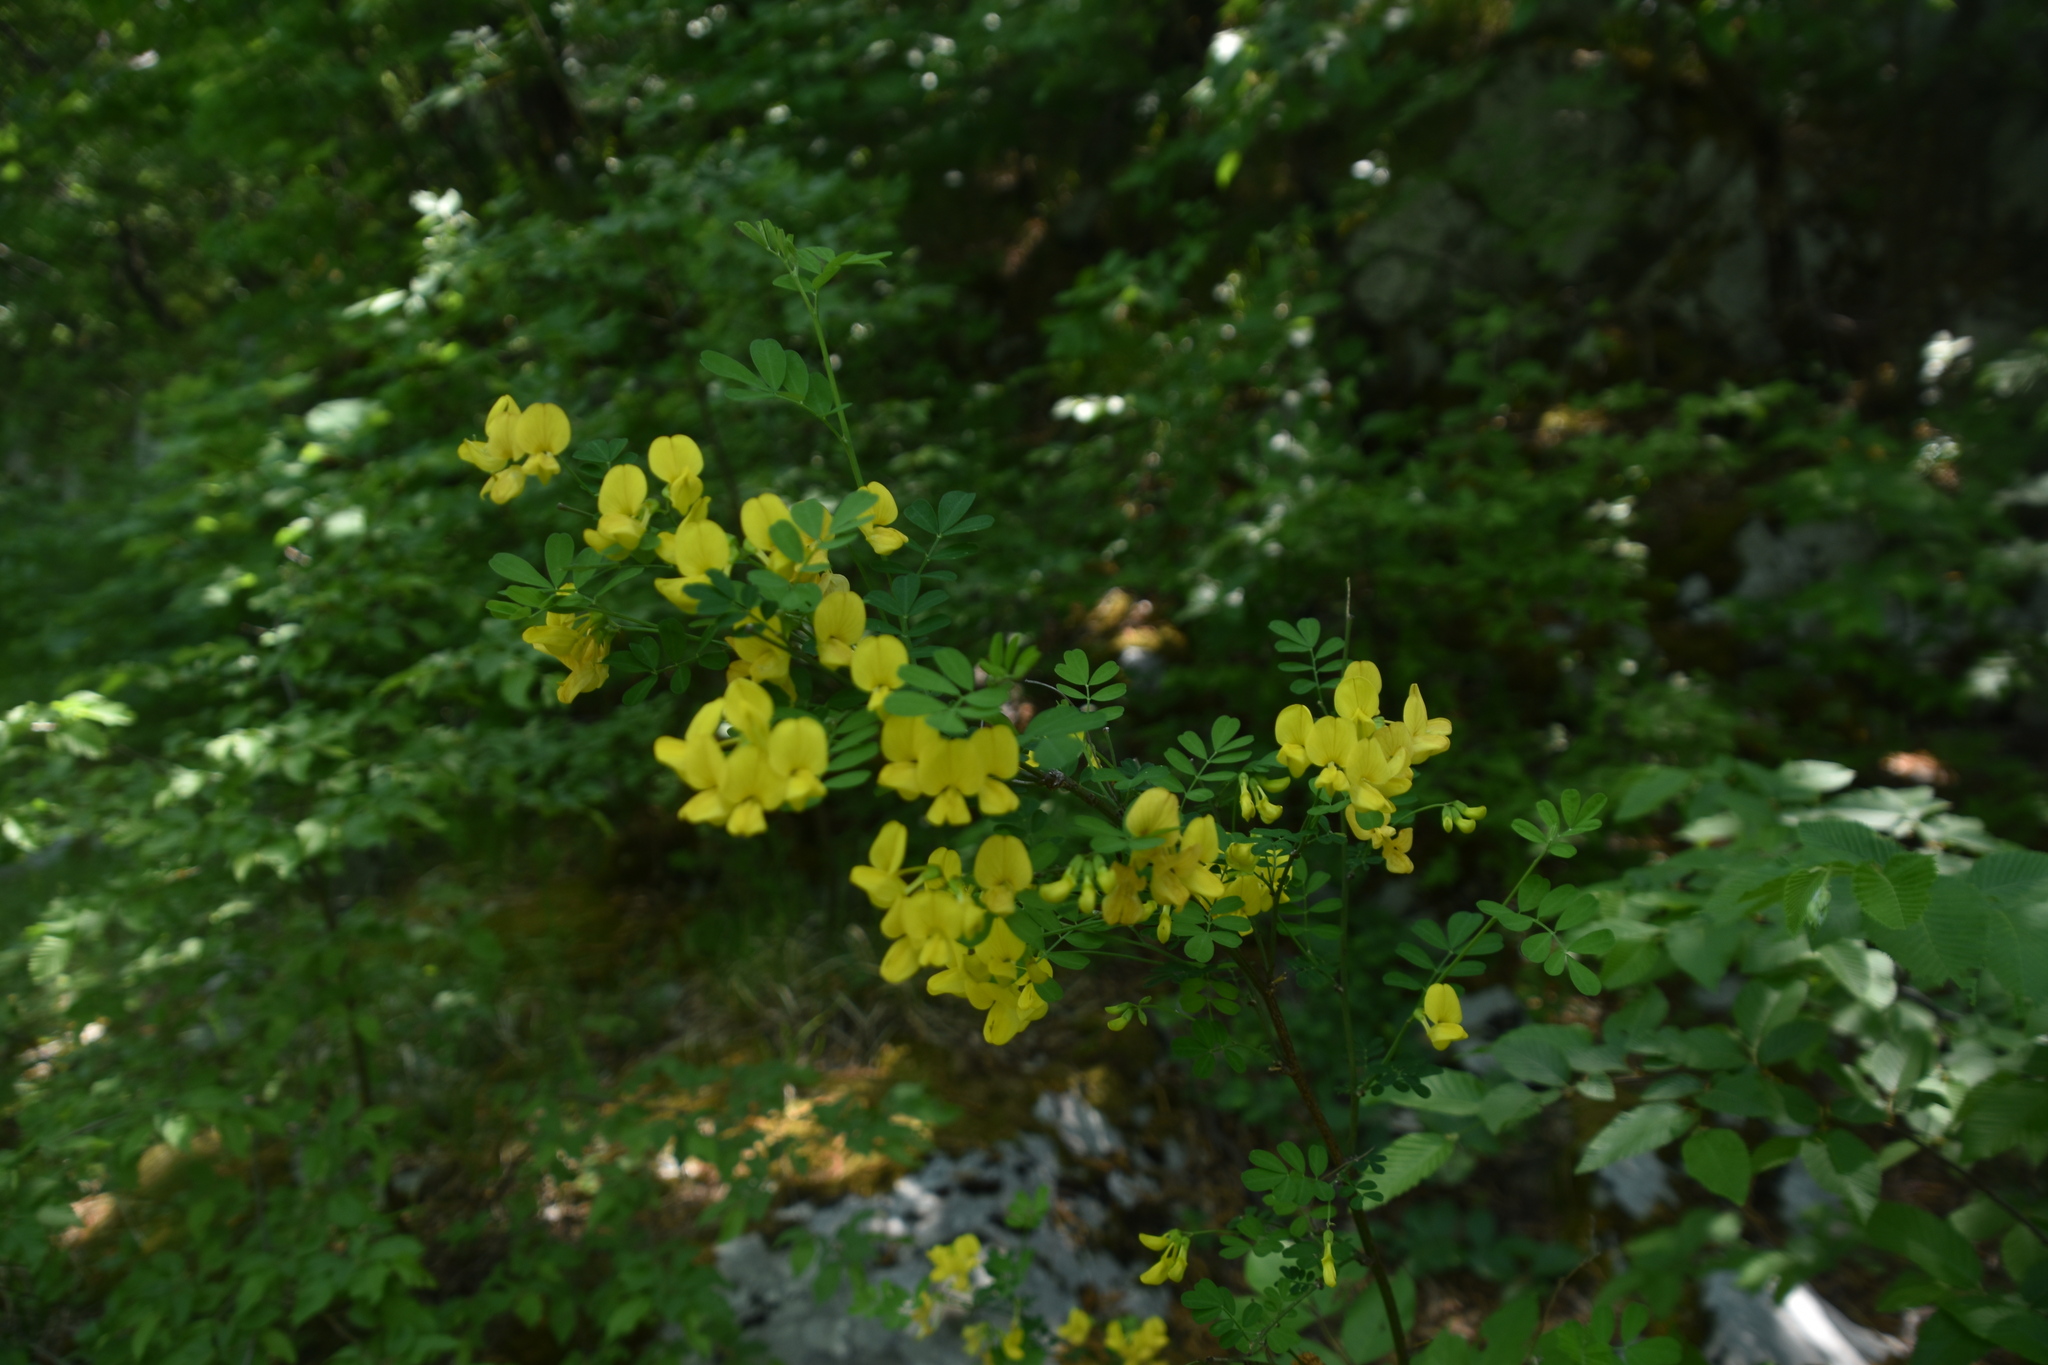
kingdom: Plantae
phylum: Tracheophyta
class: Magnoliopsida
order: Fabales
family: Fabaceae
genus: Hippocrepis
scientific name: Hippocrepis emerus
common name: Scorpion senna
